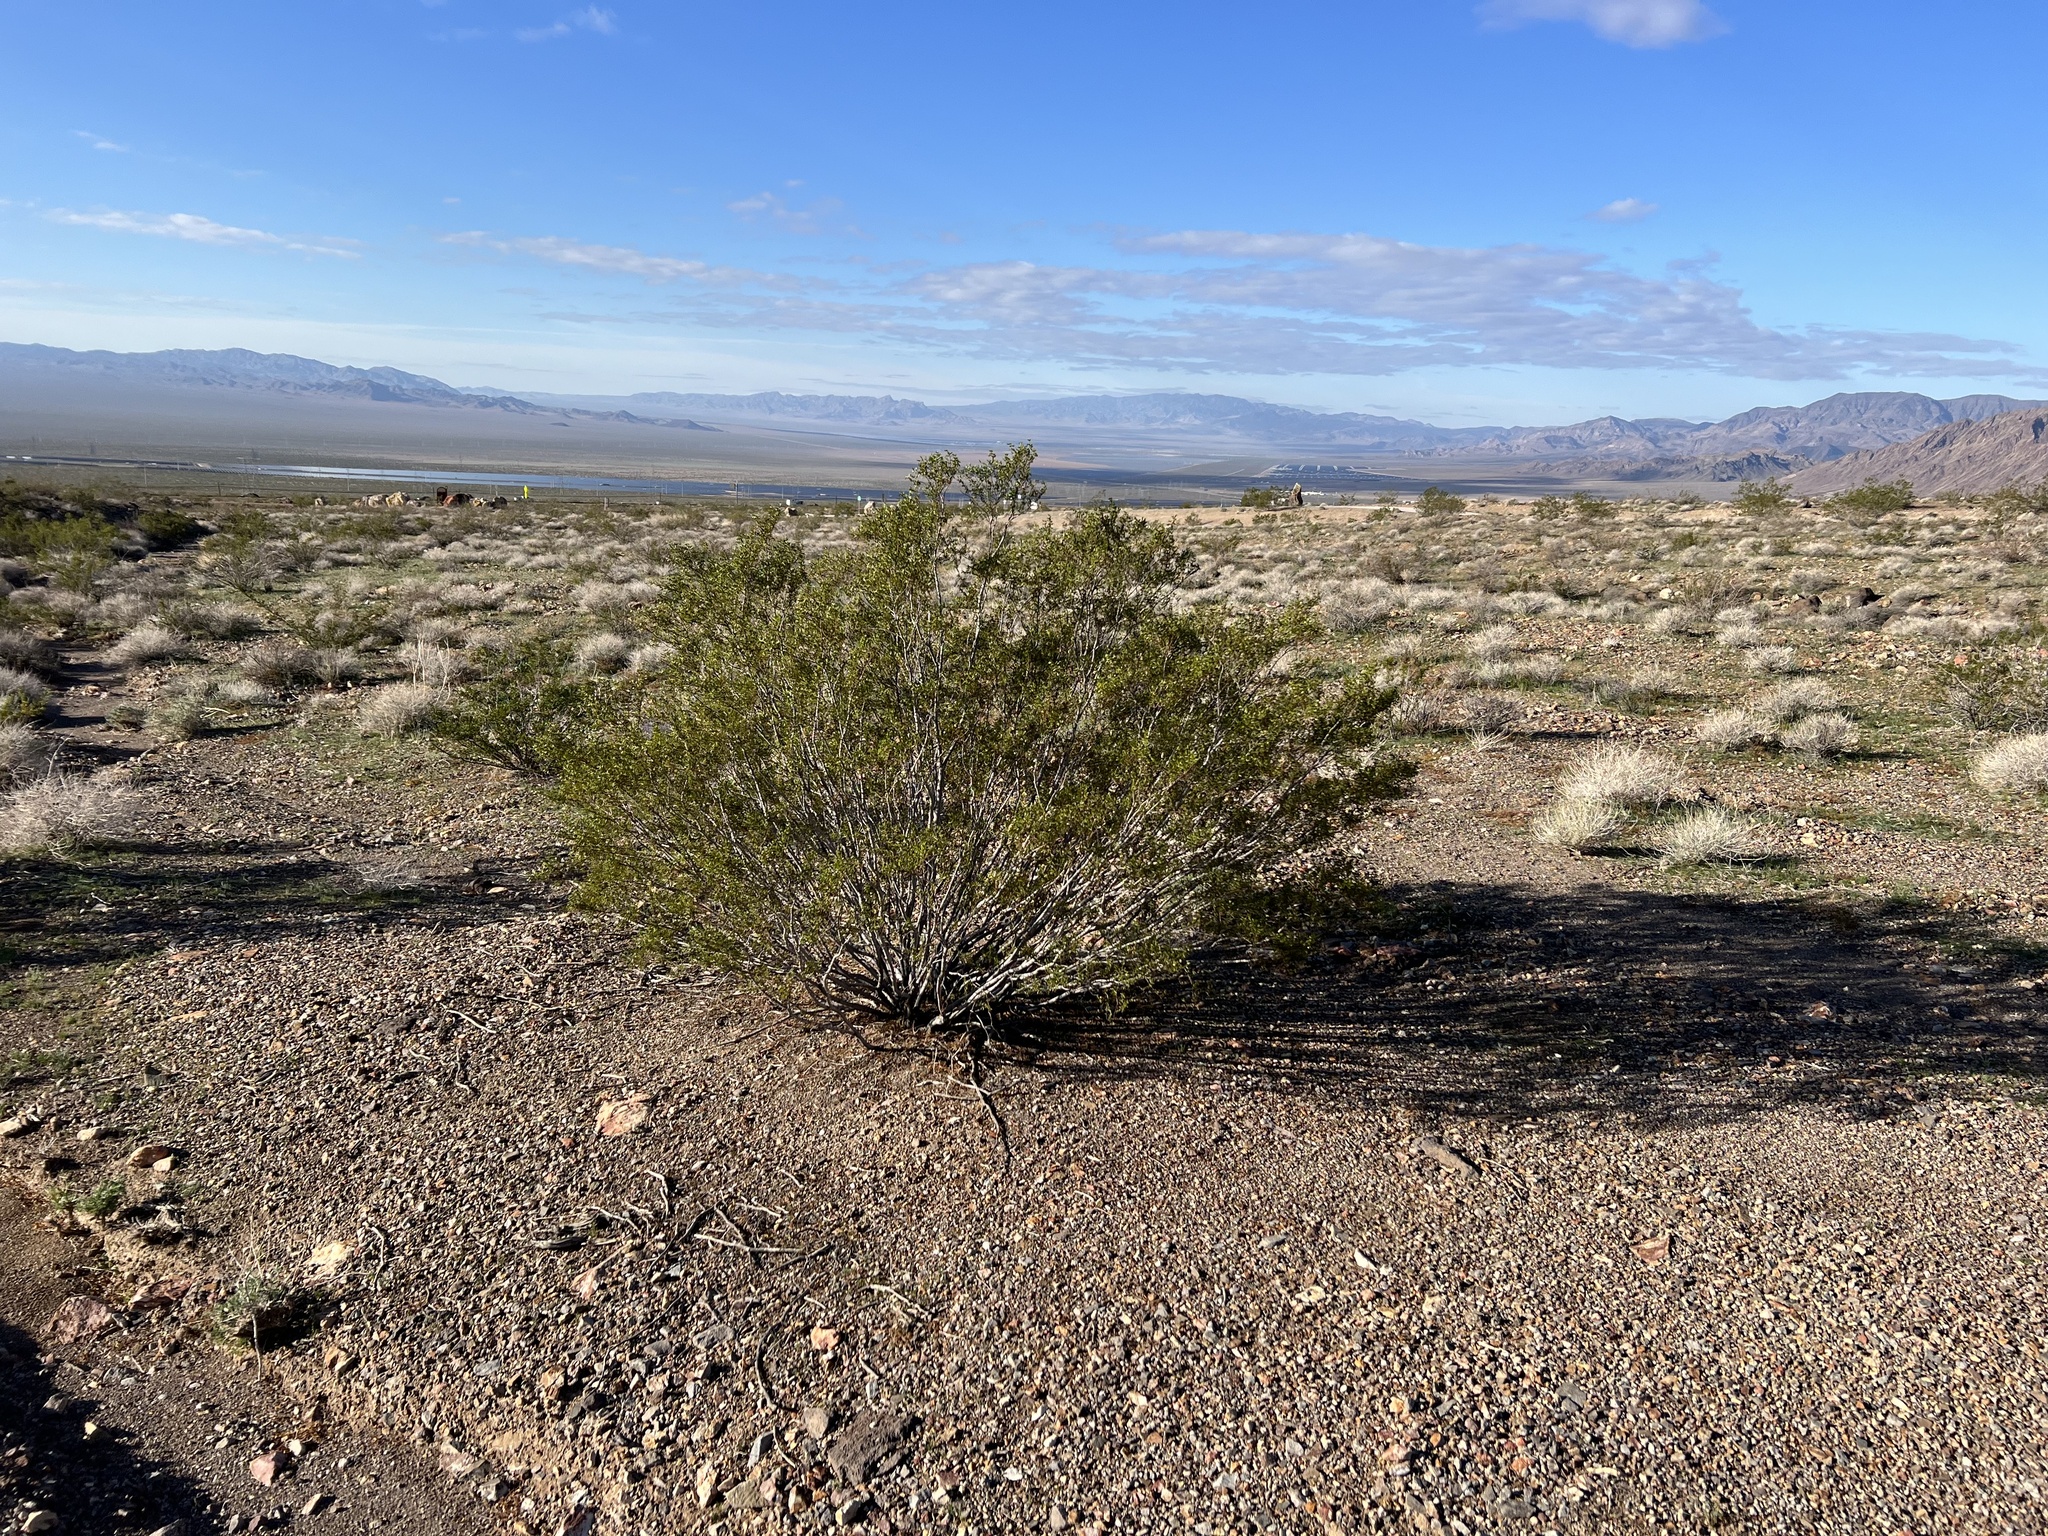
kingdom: Plantae
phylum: Tracheophyta
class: Magnoliopsida
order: Zygophyllales
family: Zygophyllaceae
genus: Larrea
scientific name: Larrea tridentata
